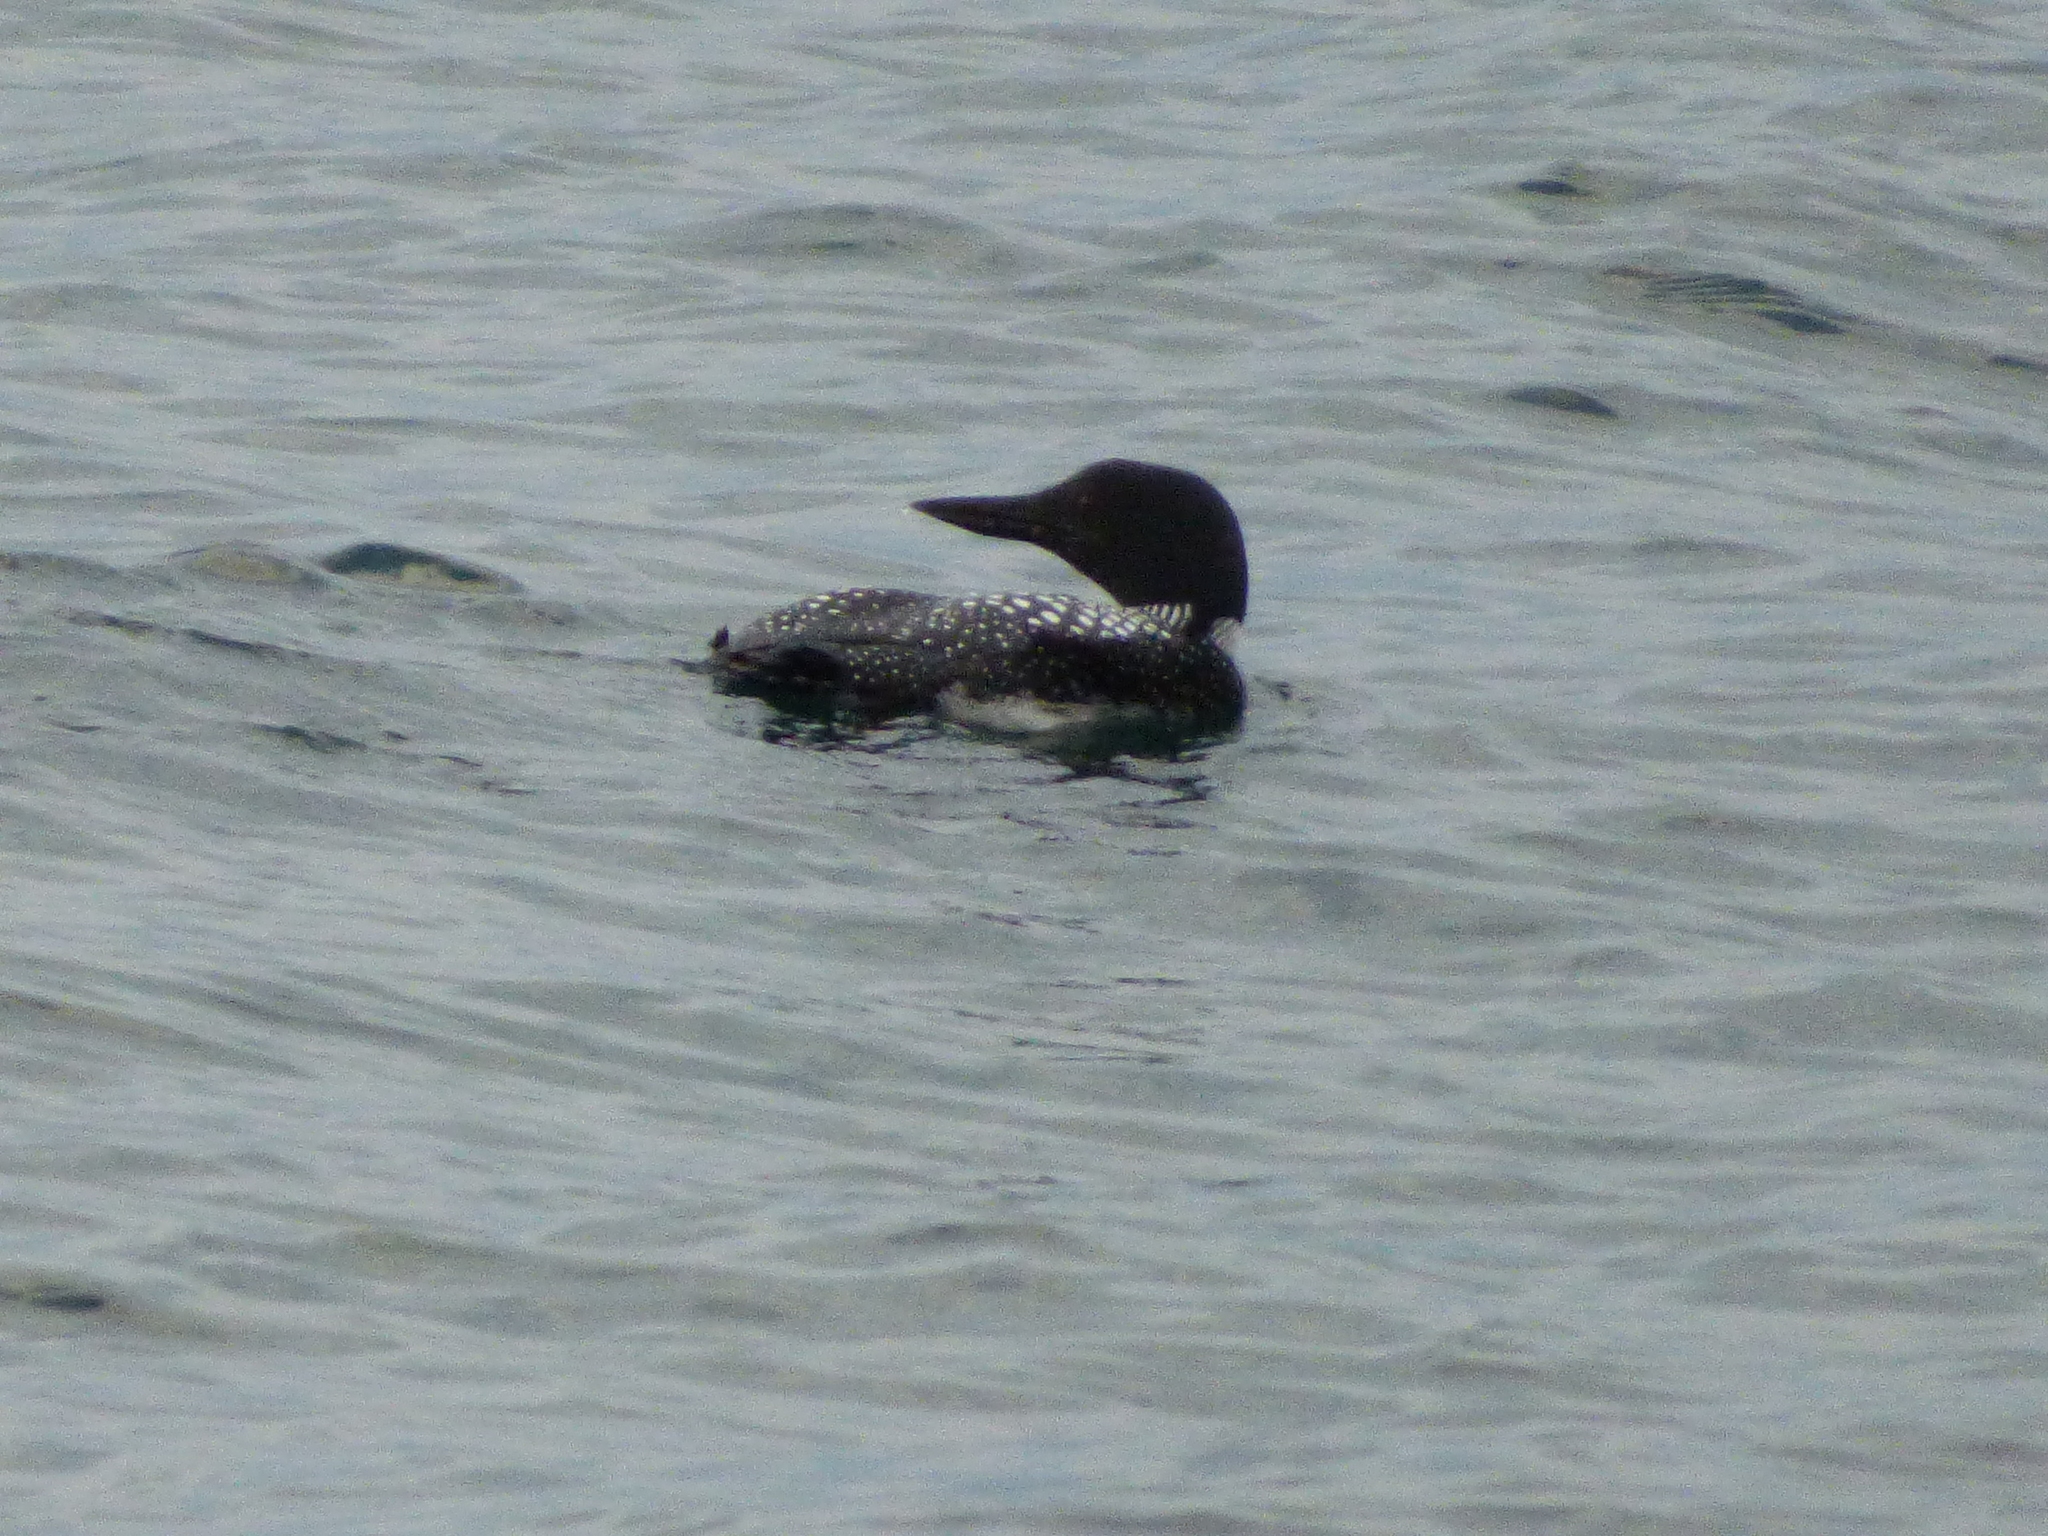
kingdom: Animalia
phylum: Chordata
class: Aves
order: Gaviiformes
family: Gaviidae
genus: Gavia
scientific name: Gavia immer
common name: Common loon
